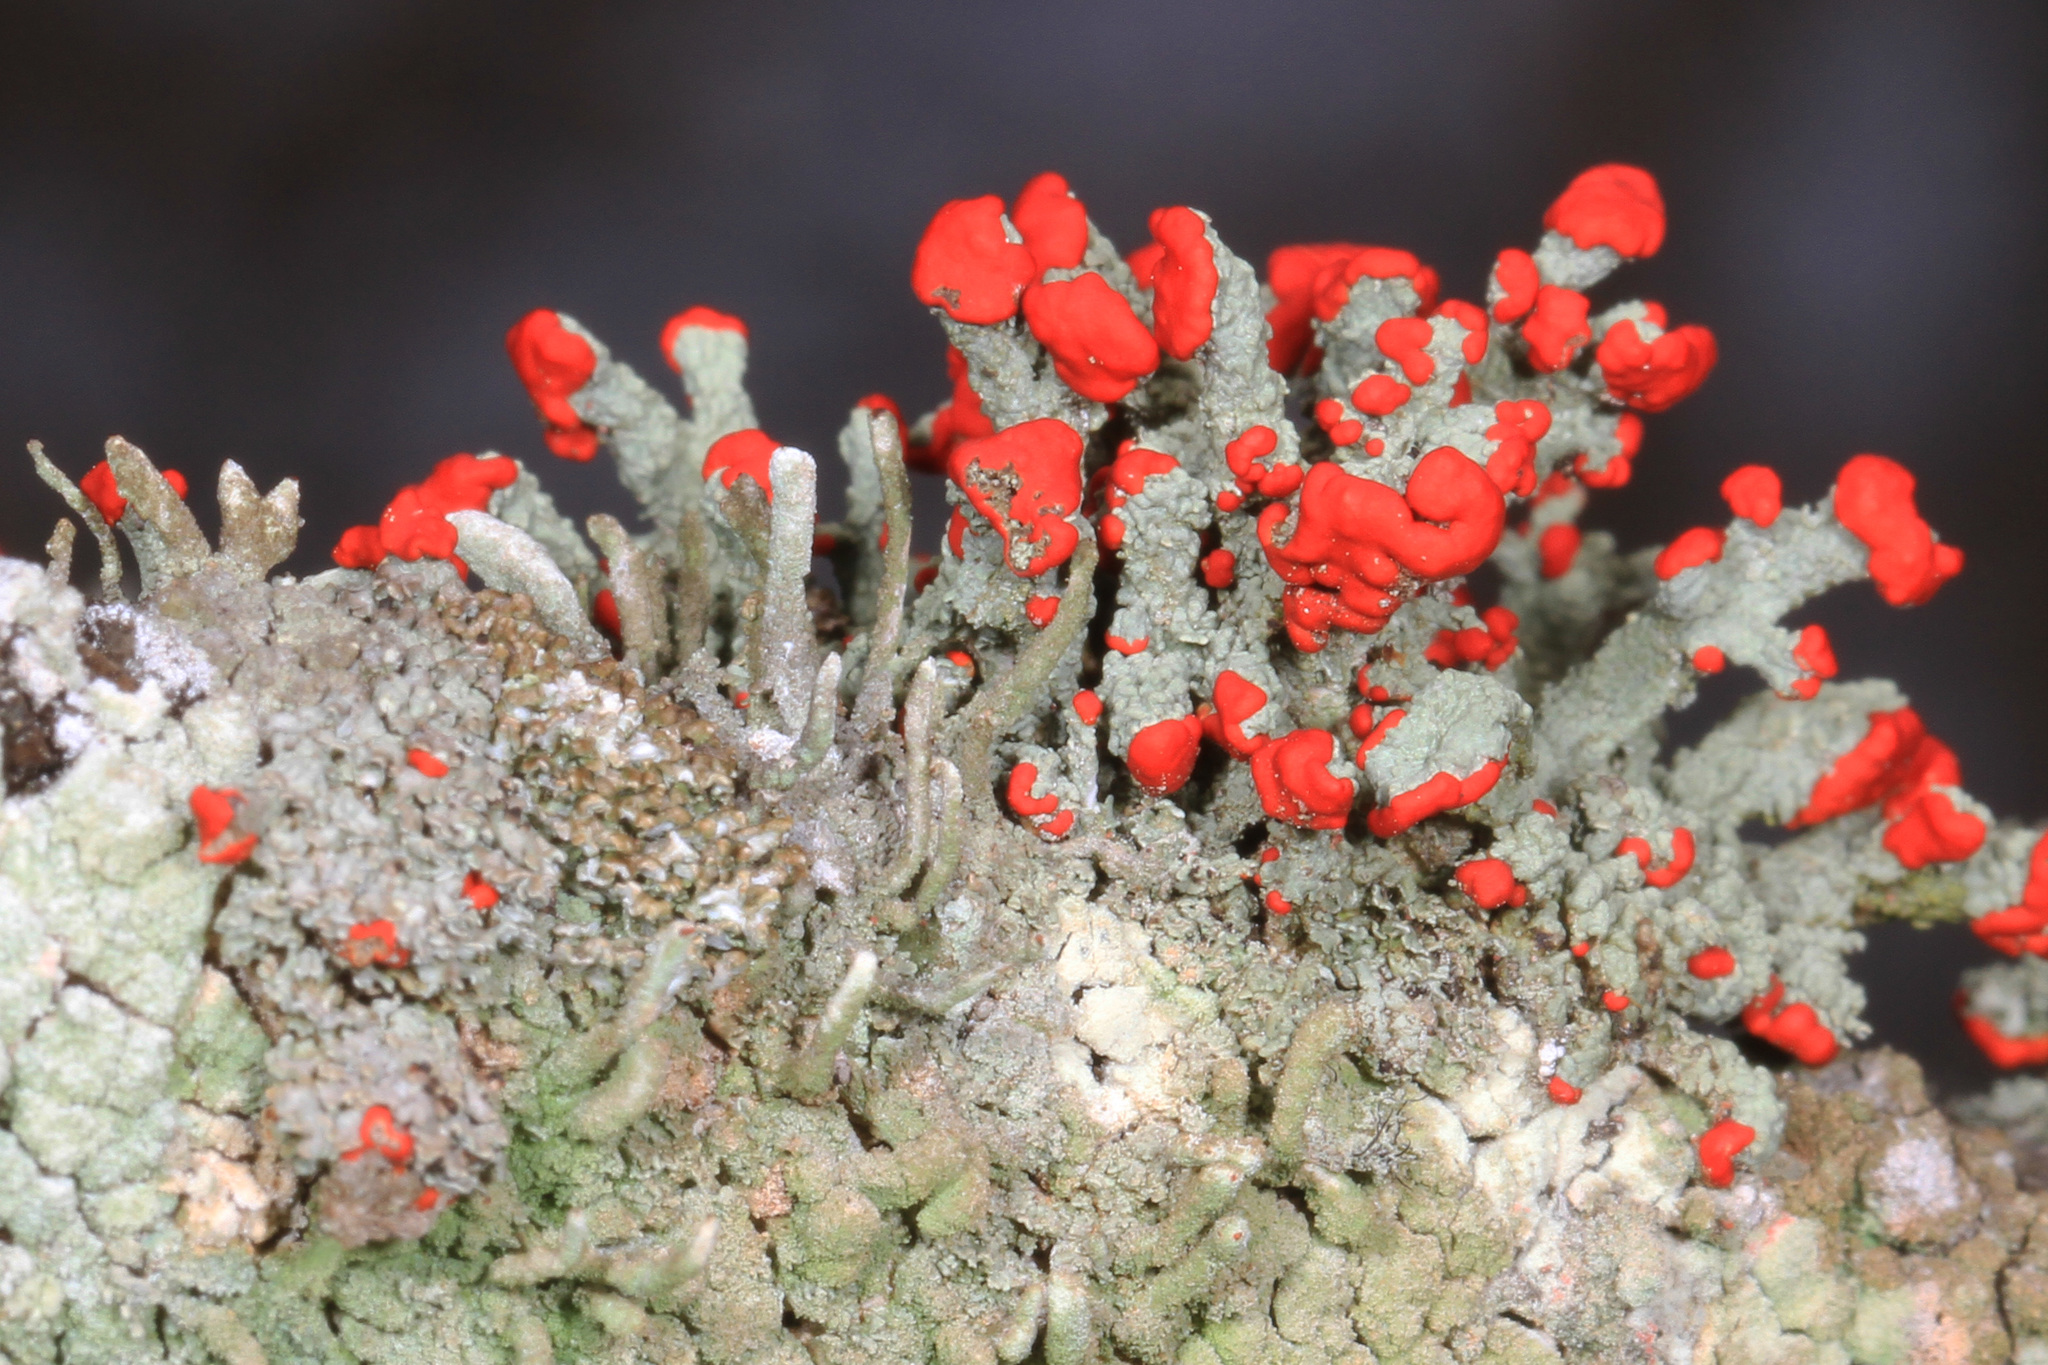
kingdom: Fungi
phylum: Ascomycota
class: Lecanoromycetes
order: Lecanorales
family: Cladoniaceae
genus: Cladonia
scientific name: Cladonia cristatella
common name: British soldier lichen
